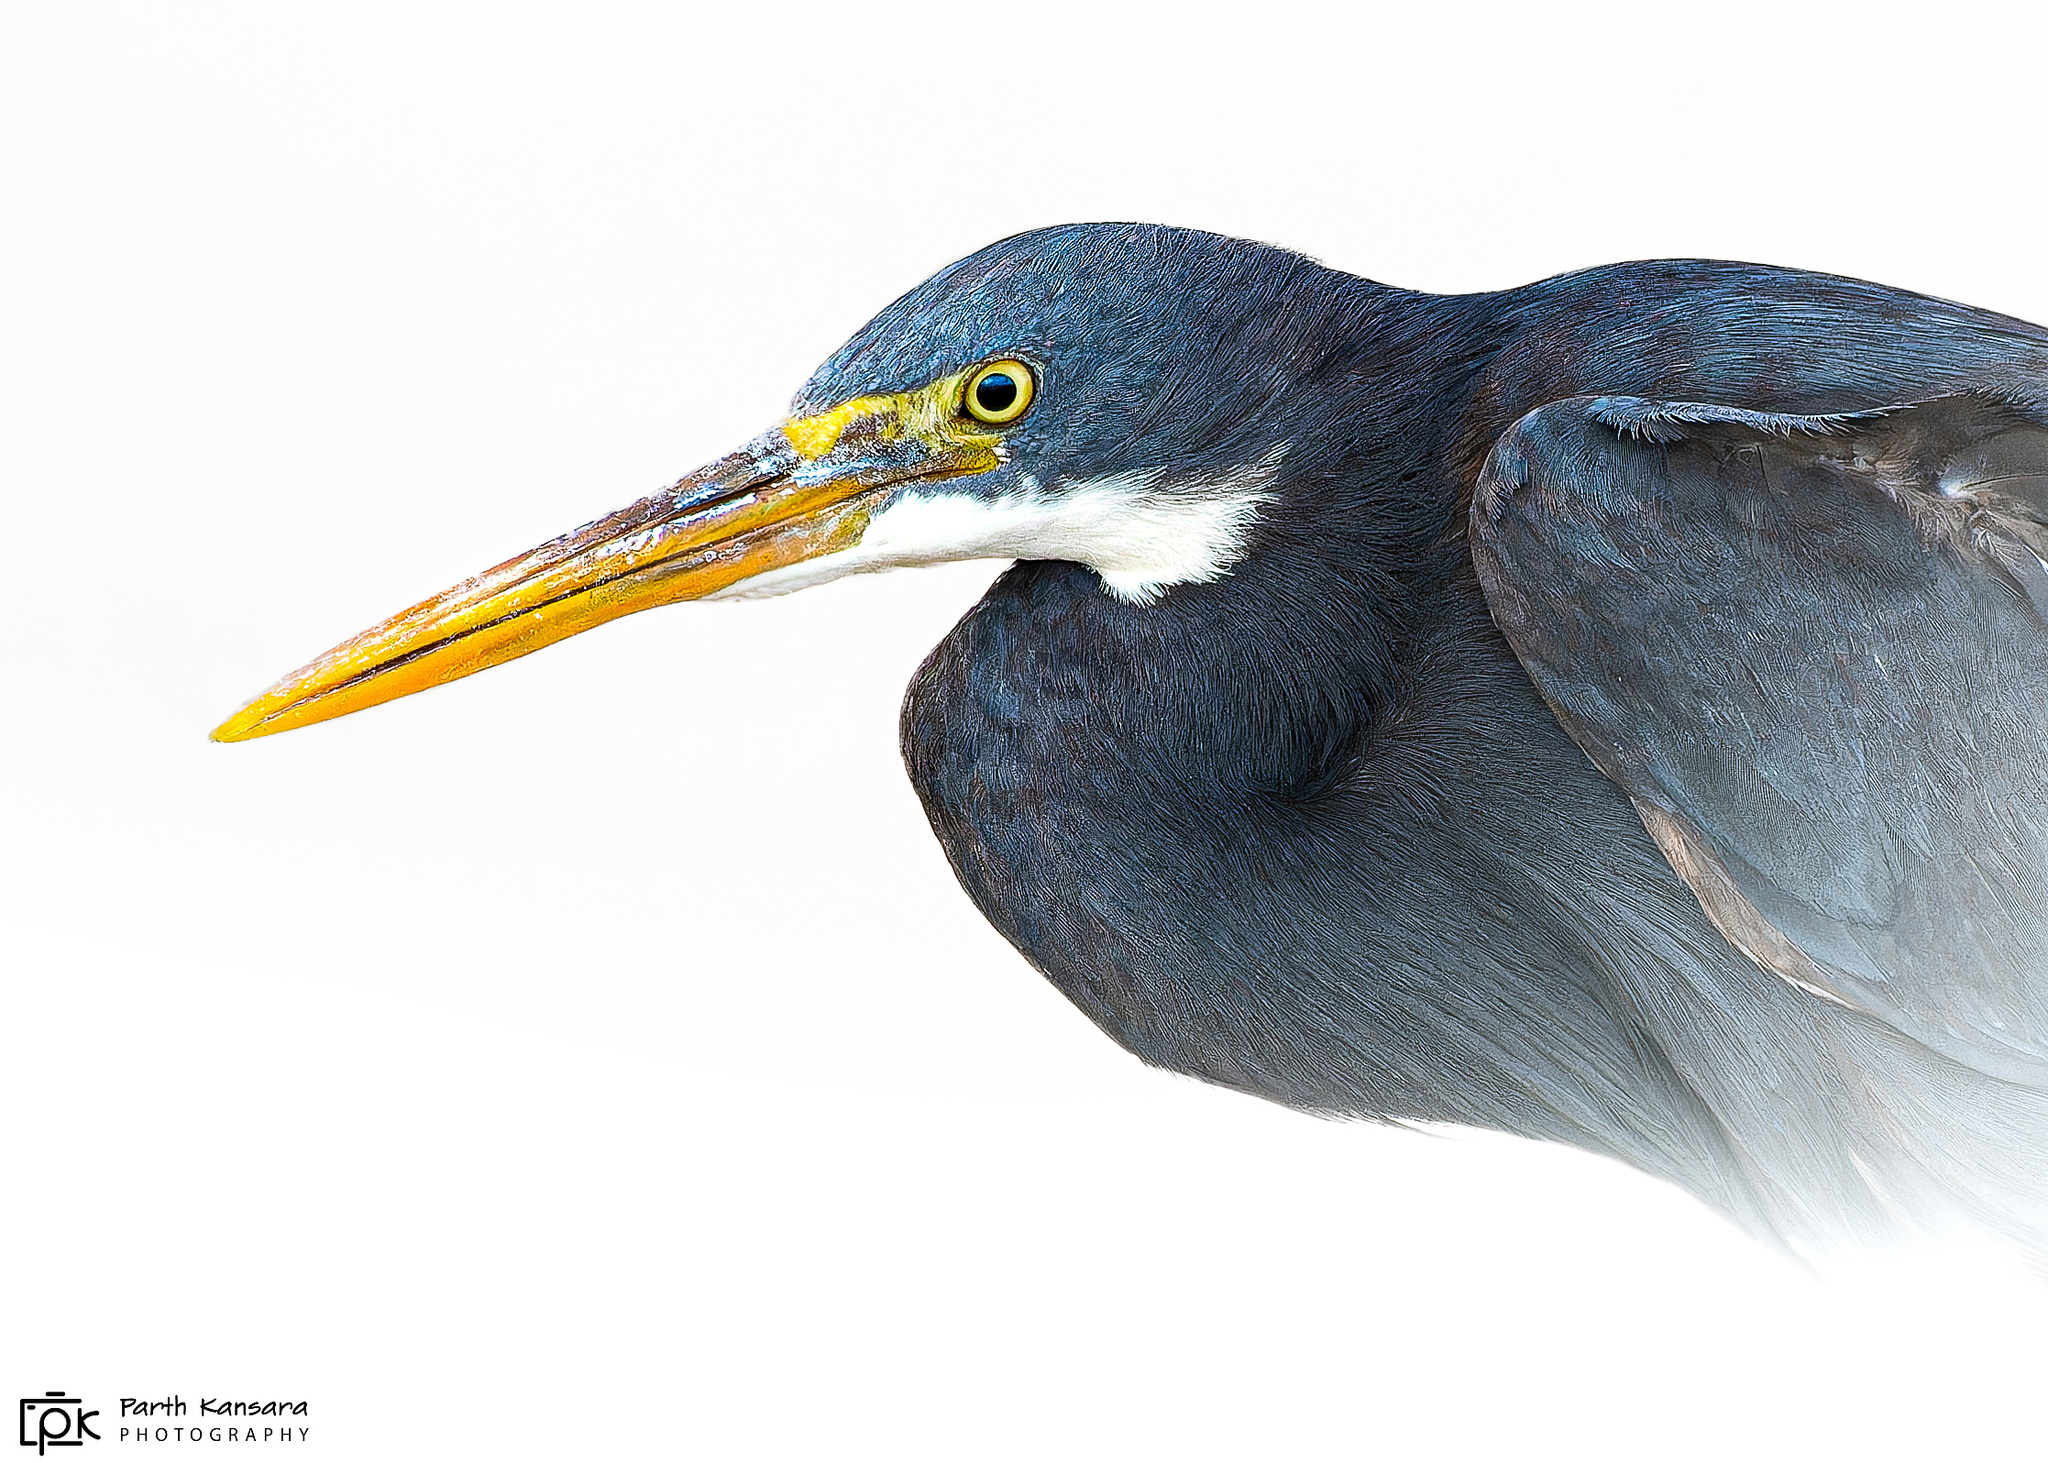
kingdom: Animalia
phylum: Chordata
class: Aves
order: Pelecaniformes
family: Ardeidae
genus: Egretta
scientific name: Egretta gularis
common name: Western reef-heron
